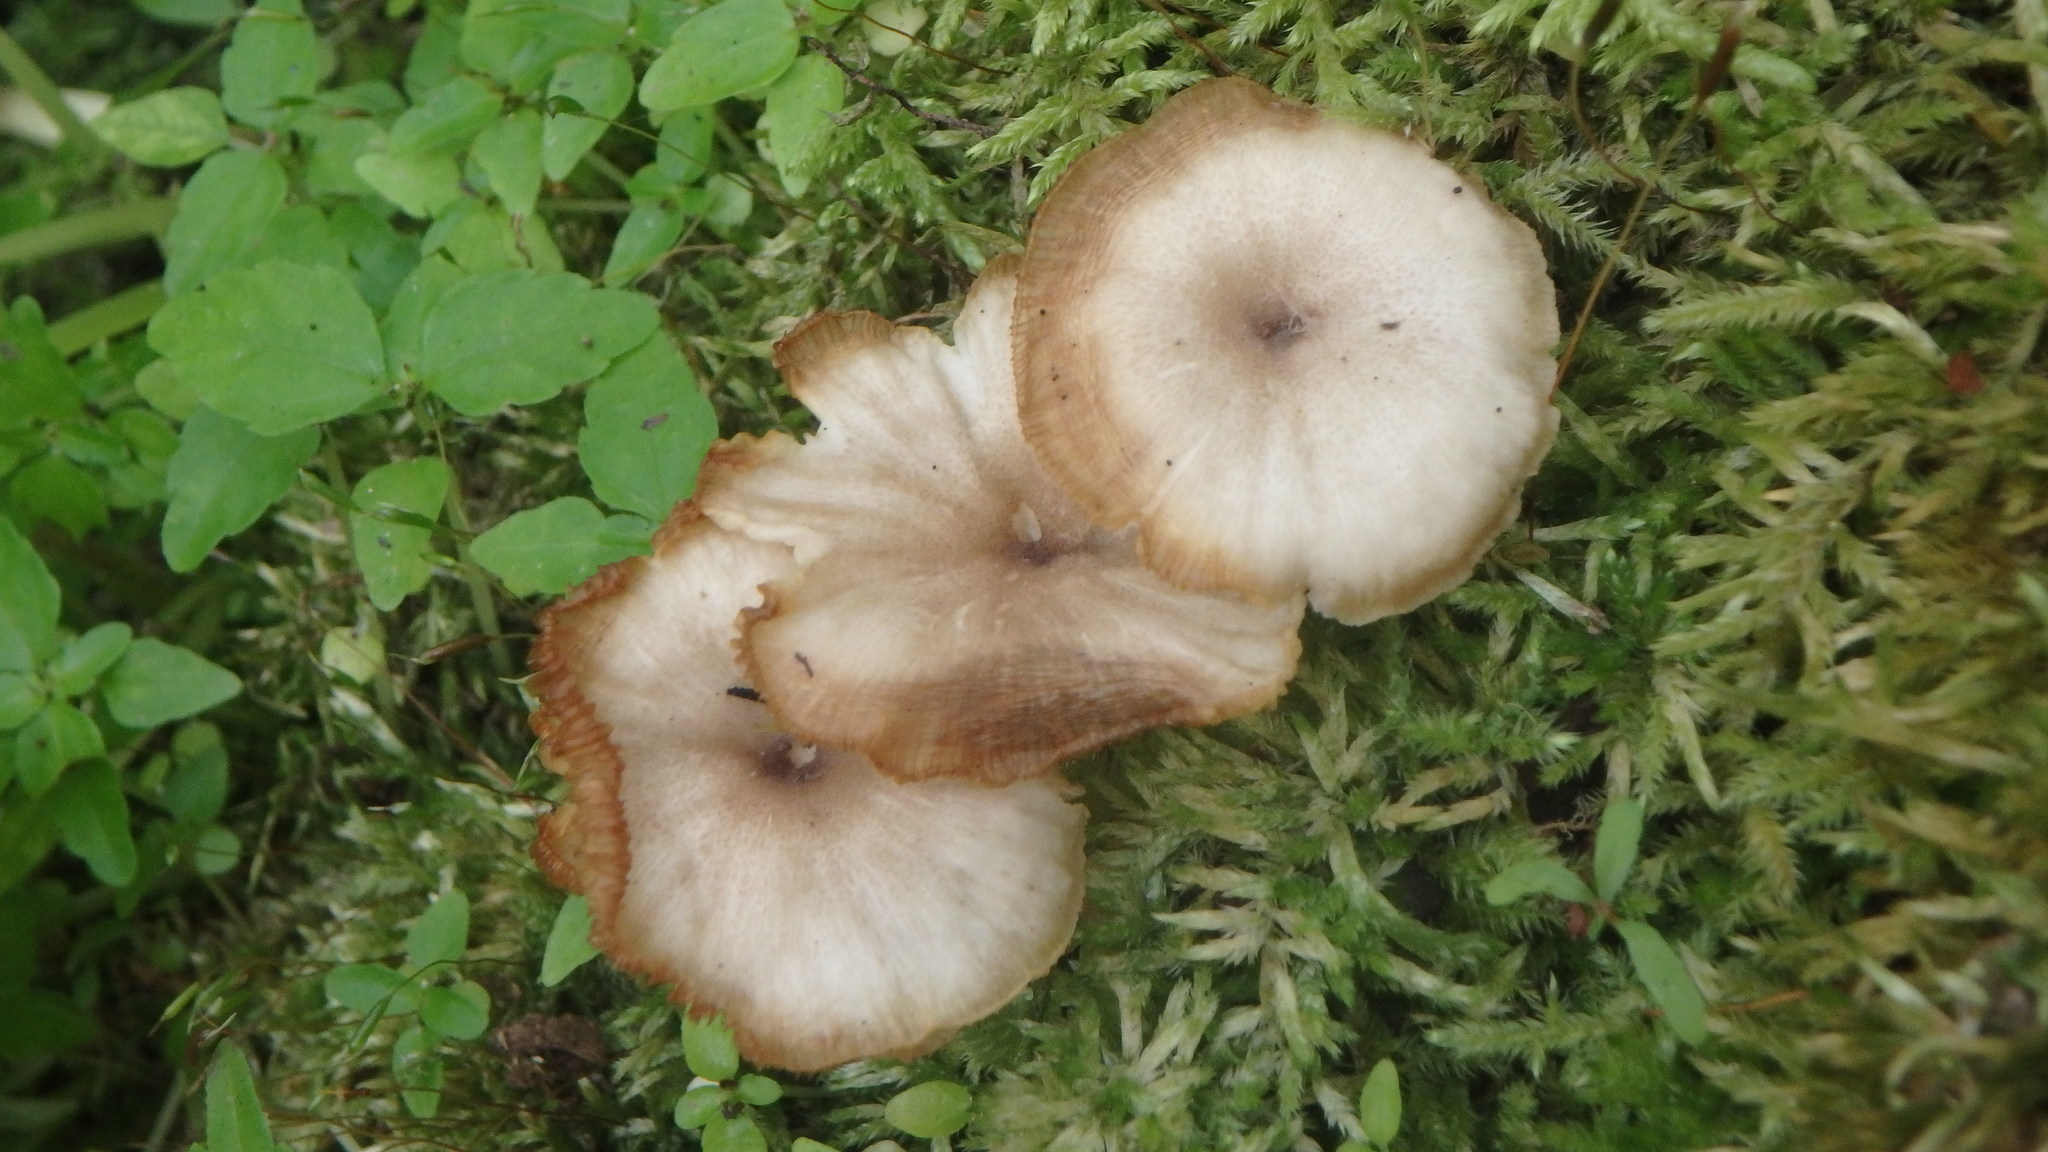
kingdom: Fungi
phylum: Basidiomycota
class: Agaricomycetes
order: Agaricales
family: Marasmiaceae
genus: Clitocybula
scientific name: Clitocybula oculata
